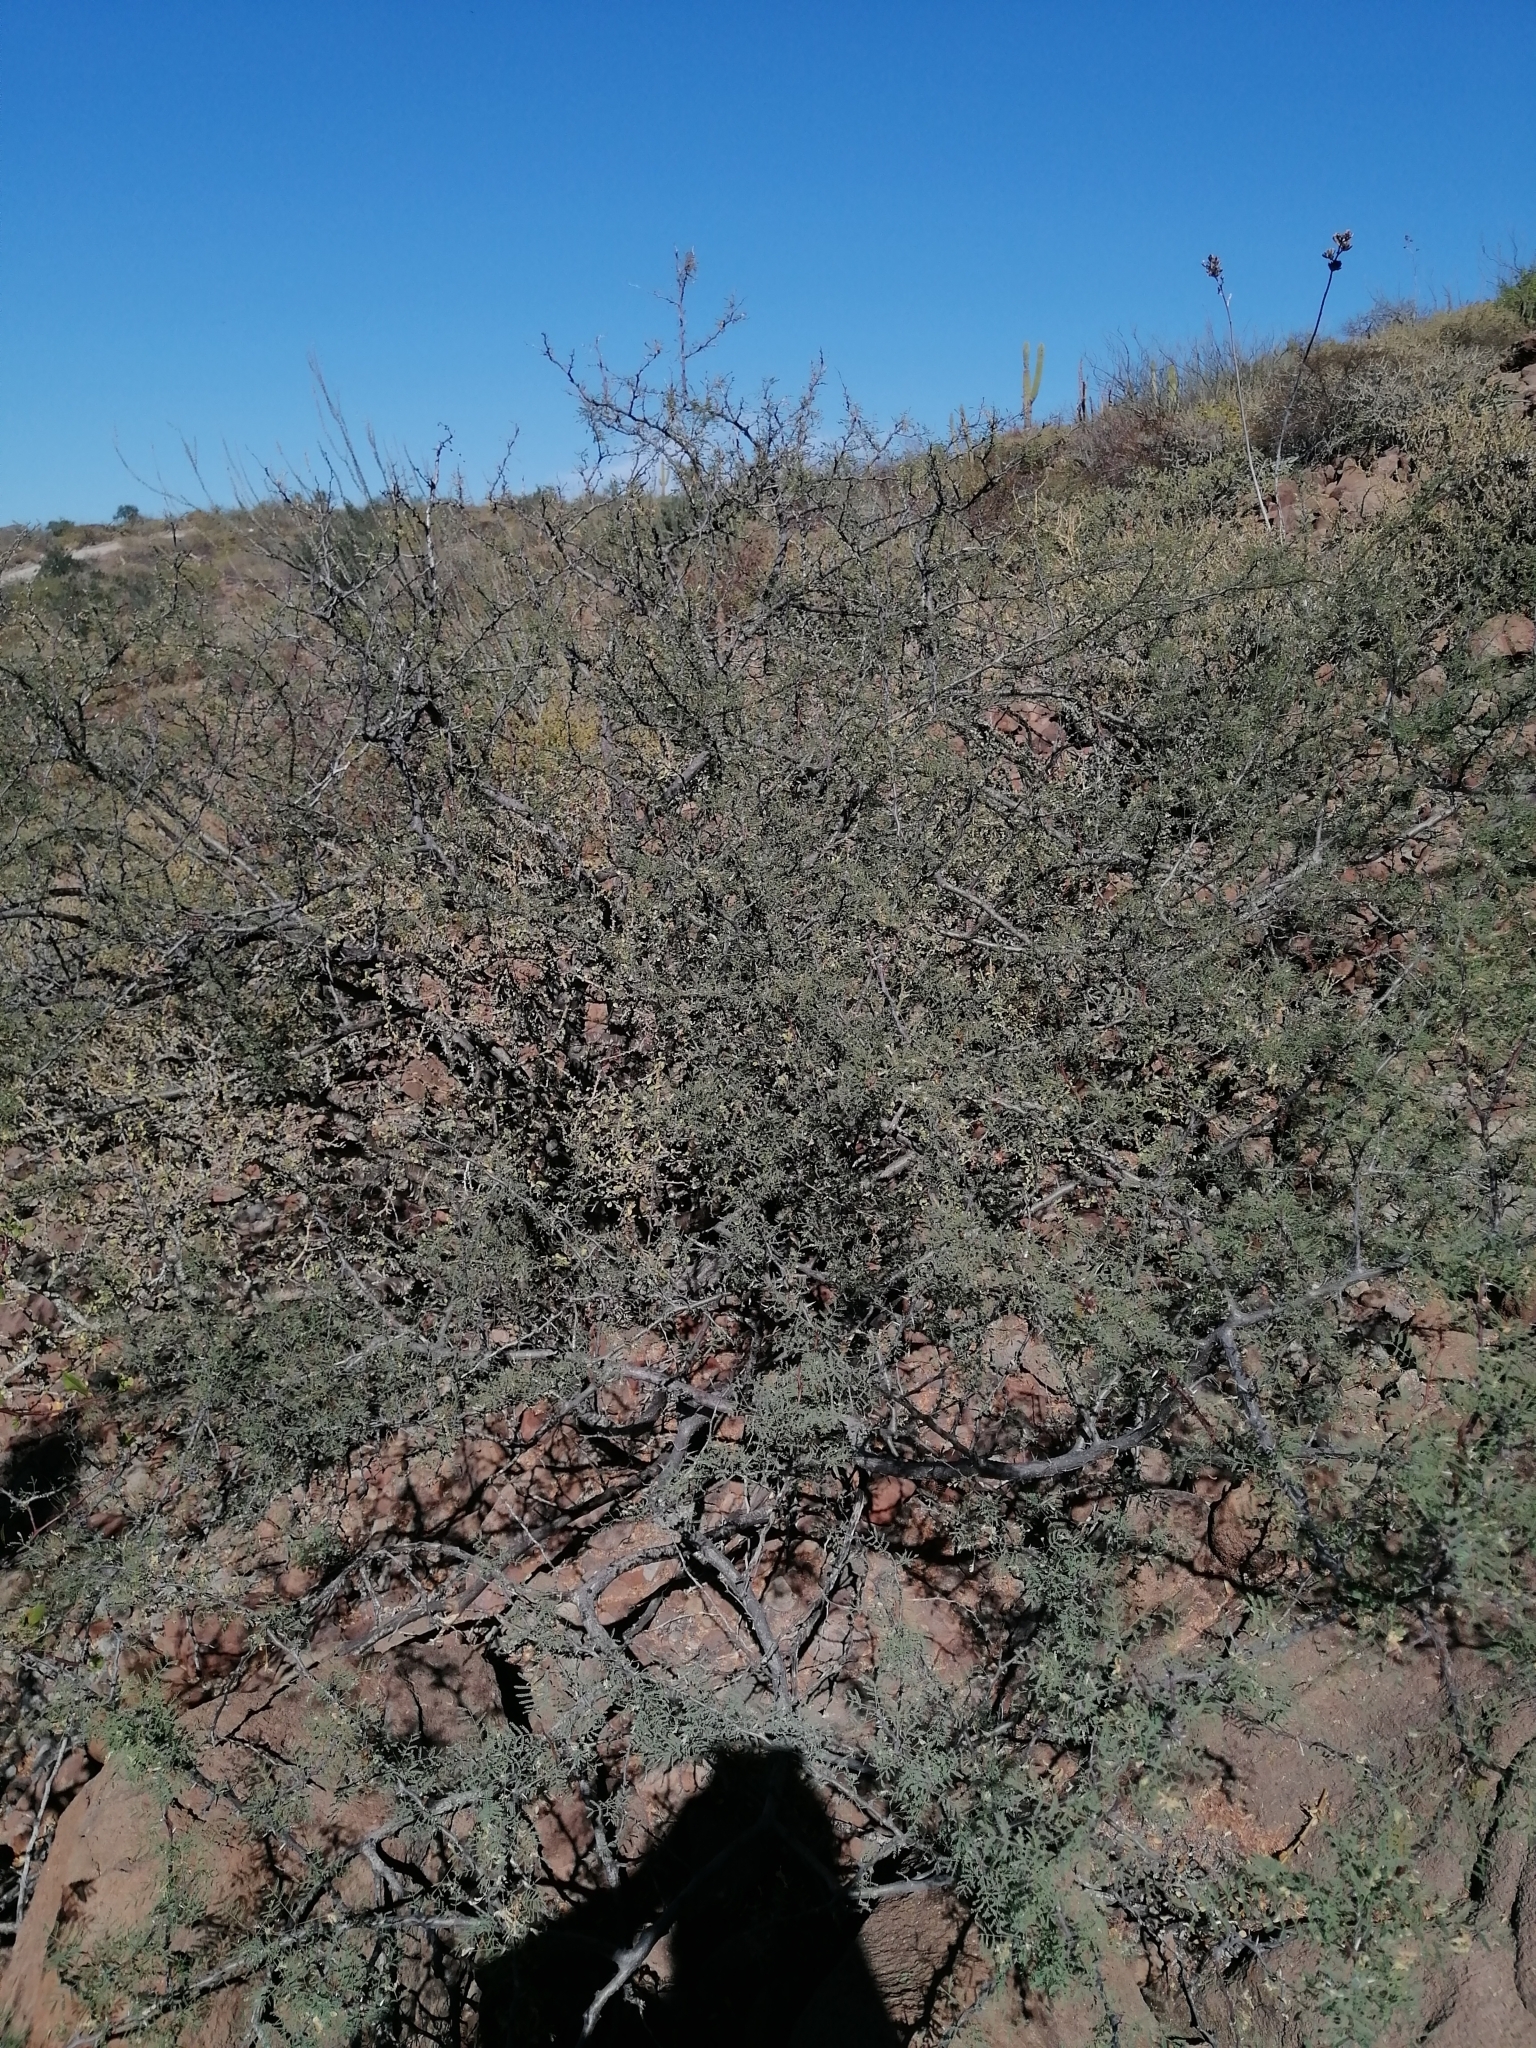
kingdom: Plantae
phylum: Tracheophyta
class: Magnoliopsida
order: Fabales
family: Fabaceae
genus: Vachellia
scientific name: Vachellia pacensis
